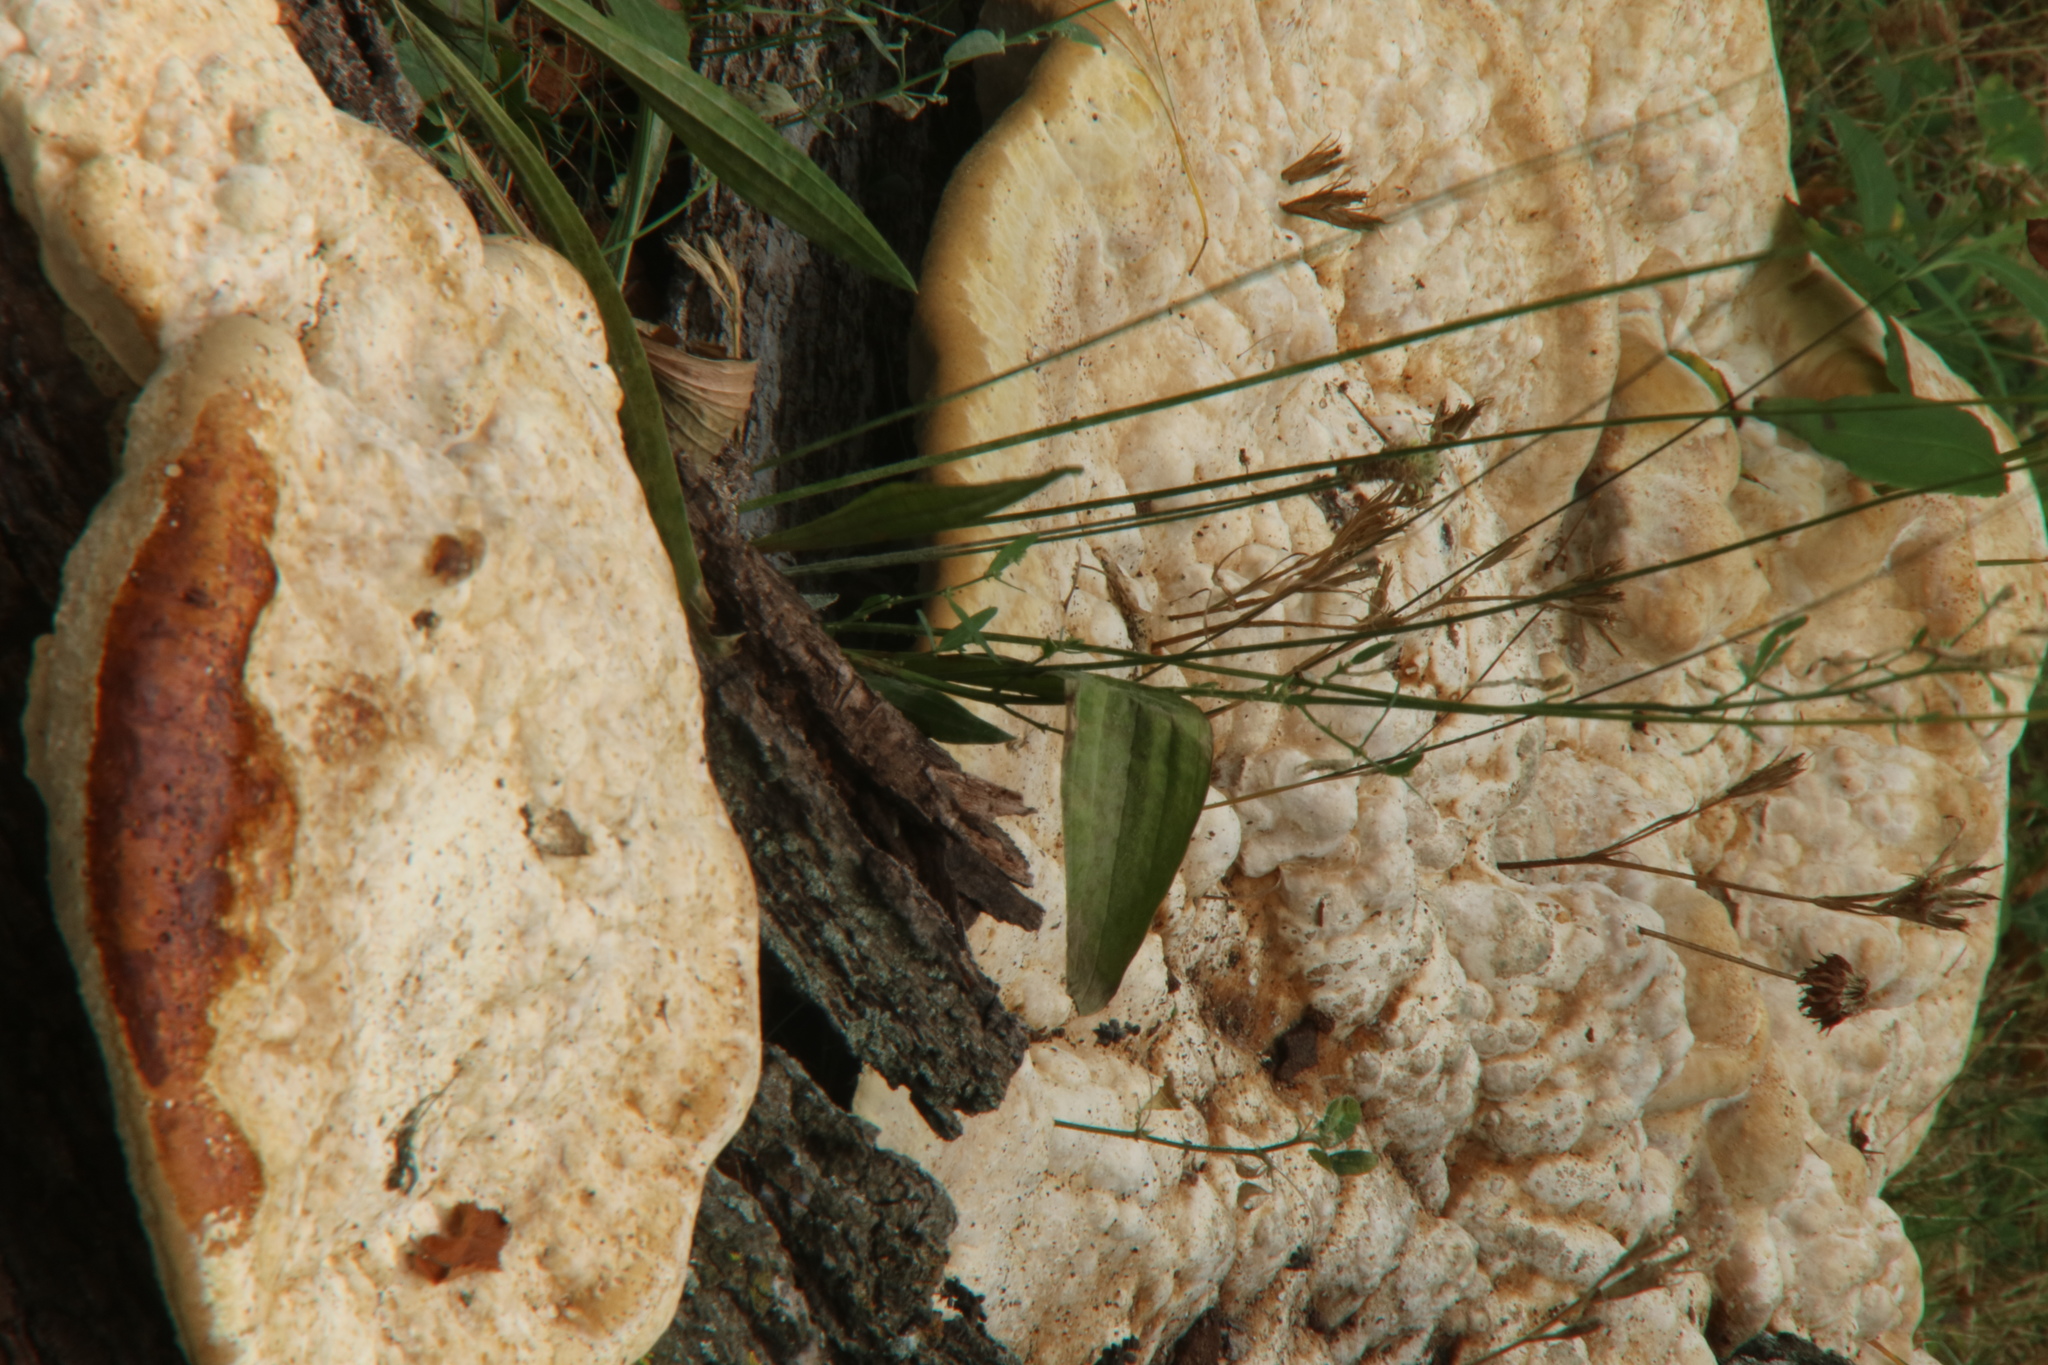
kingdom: Fungi
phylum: Basidiomycota
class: Agaricomycetes
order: Hymenochaetales
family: Hymenochaetaceae
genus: Pseudoinonotus
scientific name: Pseudoinonotus dryadeus
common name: Oak bracket
